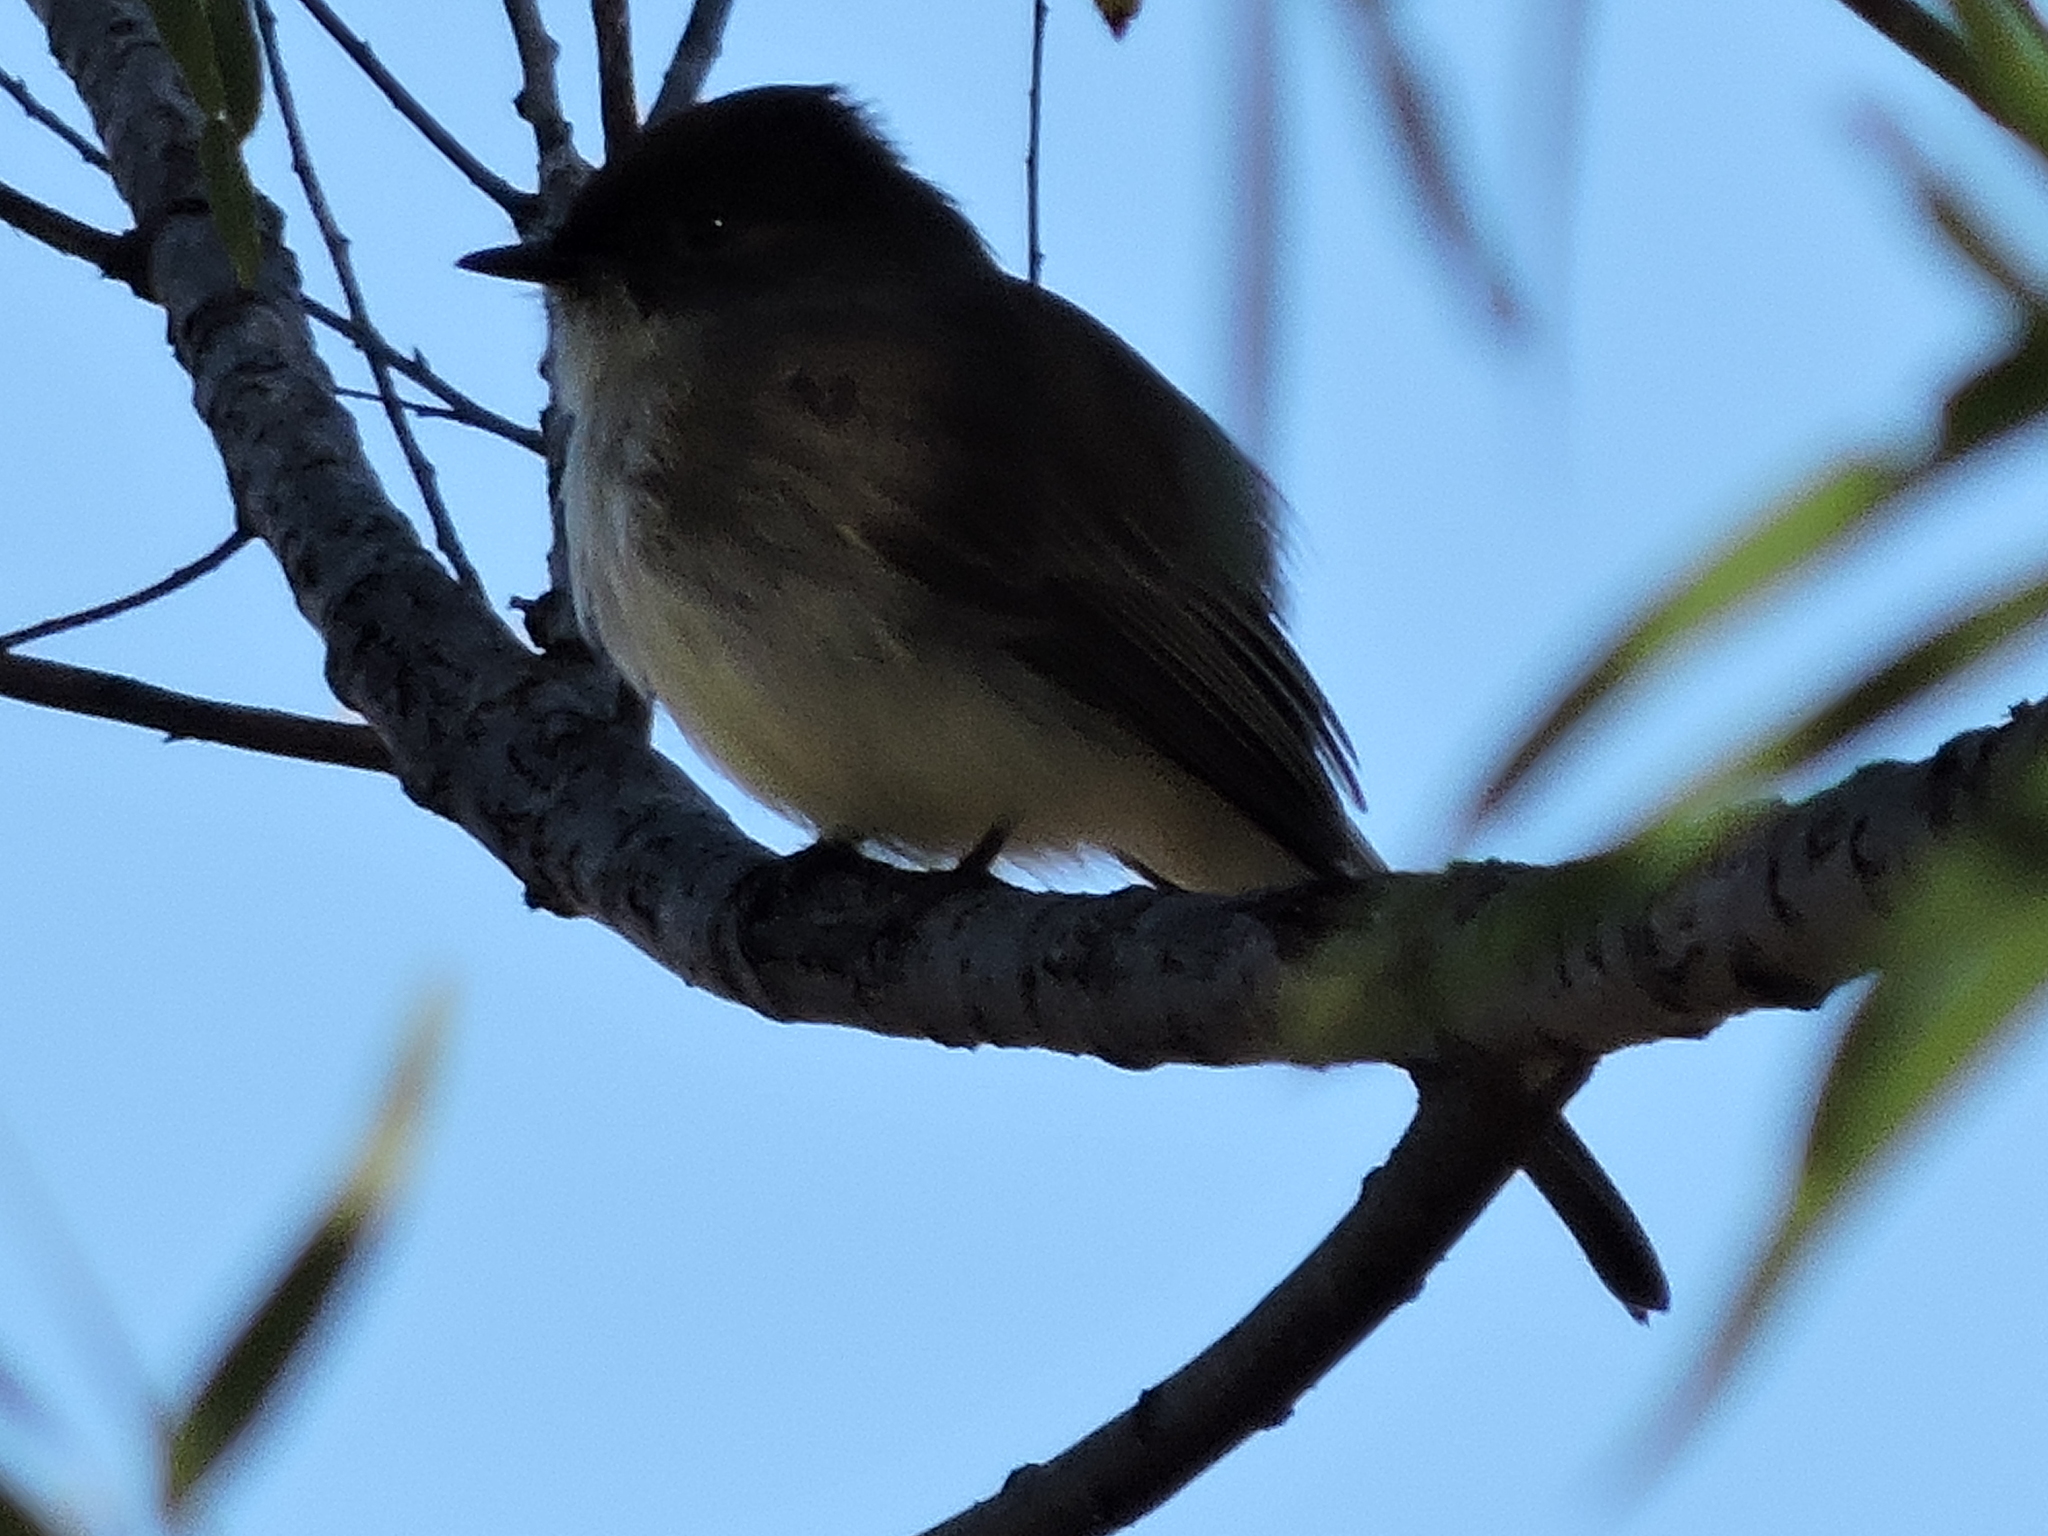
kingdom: Animalia
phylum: Chordata
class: Aves
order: Passeriformes
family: Tyrannidae
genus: Sayornis
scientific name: Sayornis phoebe
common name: Eastern phoebe
